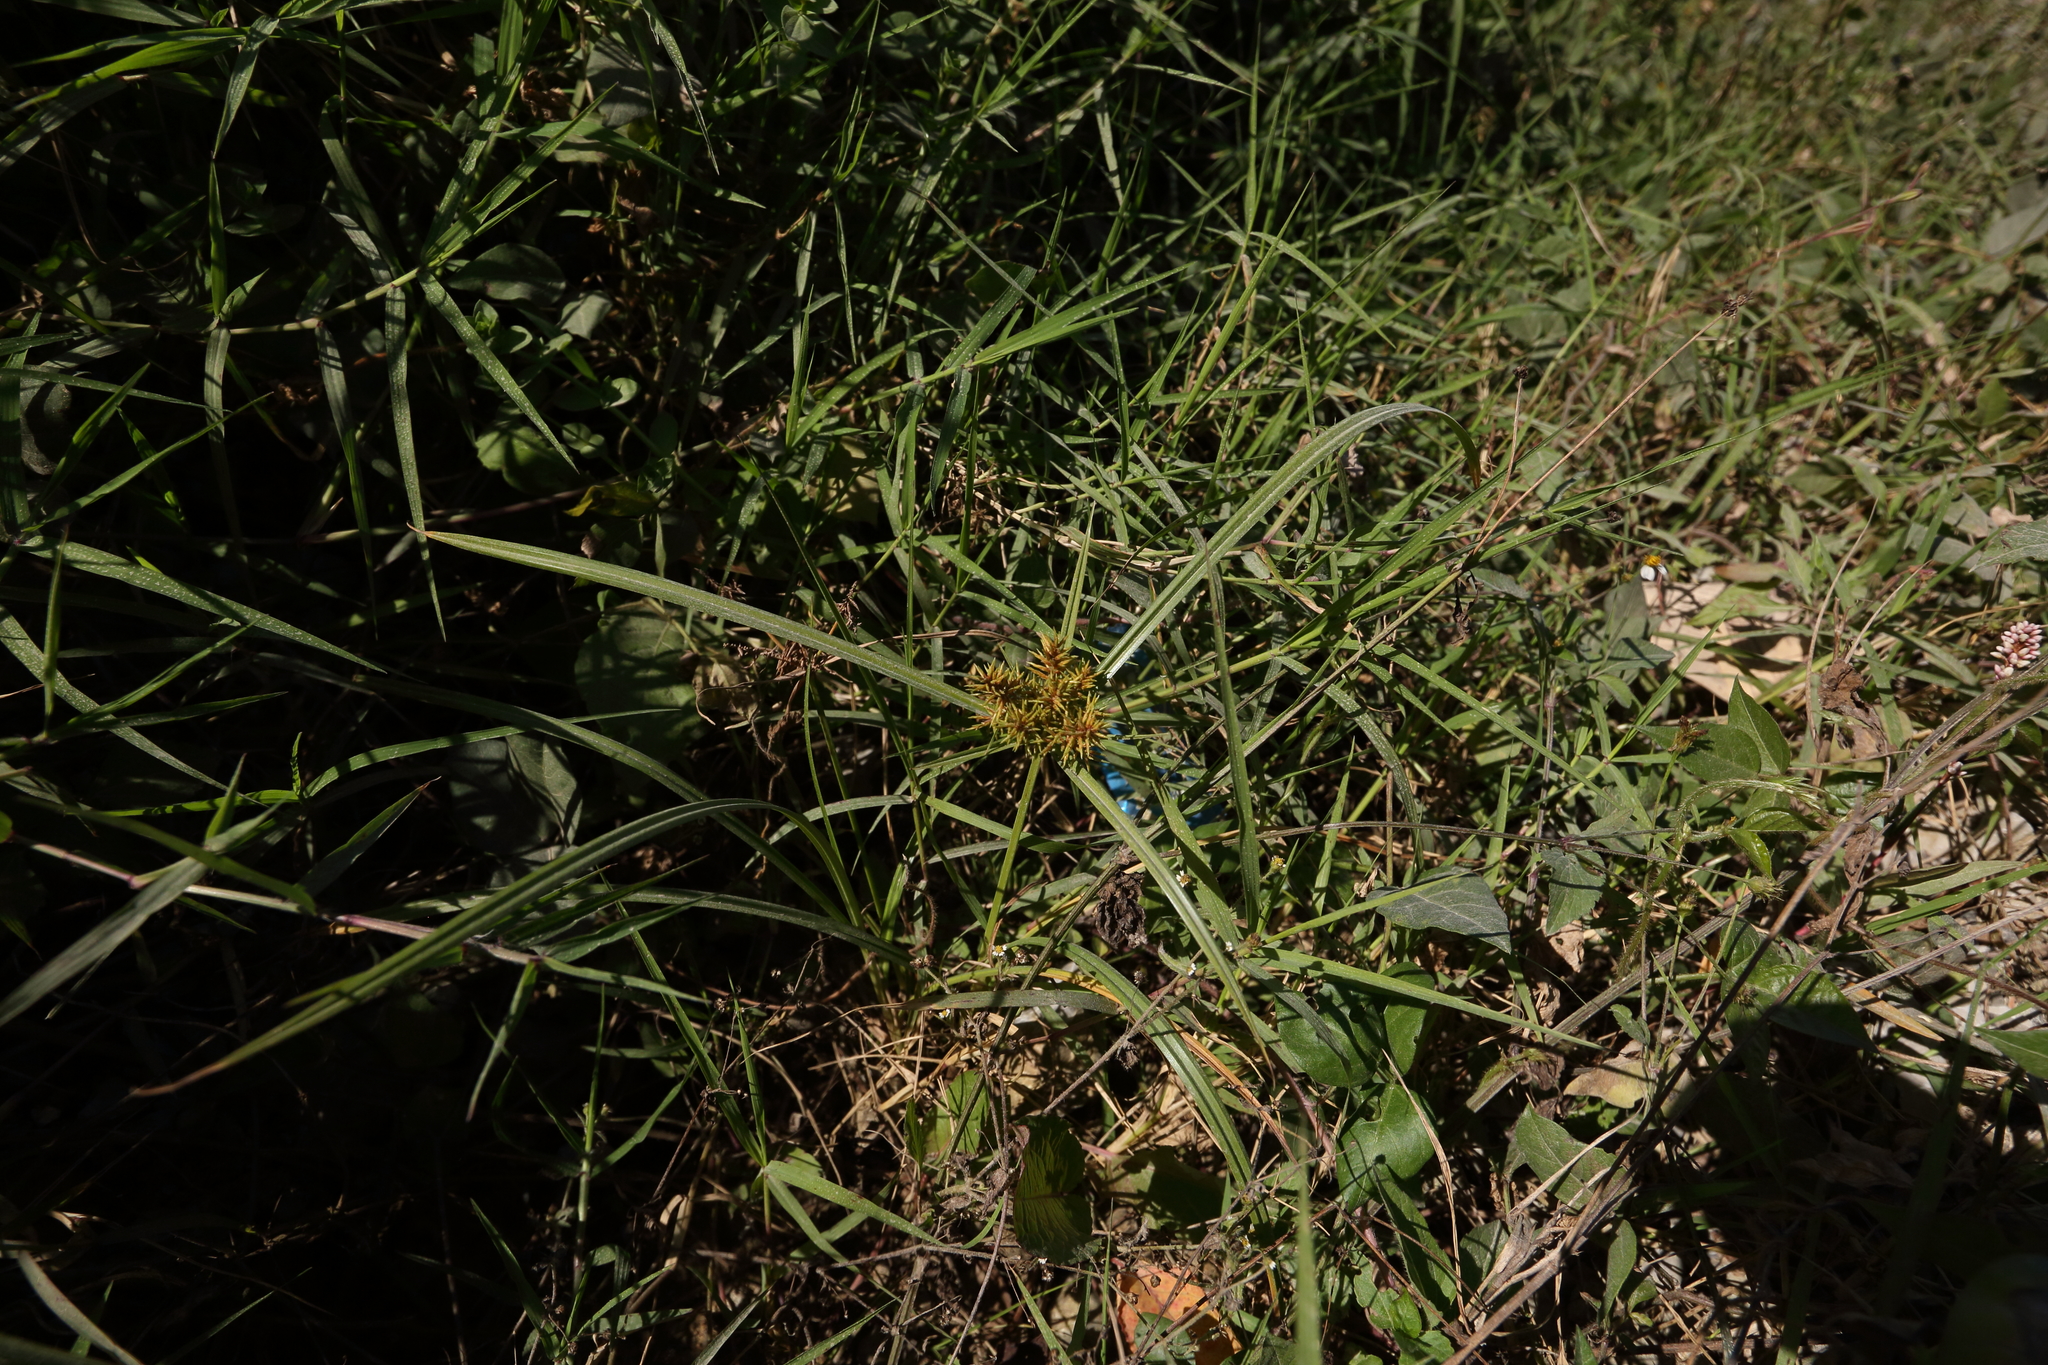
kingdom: Plantae
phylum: Tracheophyta
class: Liliopsida
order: Poales
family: Cyperaceae
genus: Cyperus
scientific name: Cyperus odoratus
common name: Fragrant flatsedge
